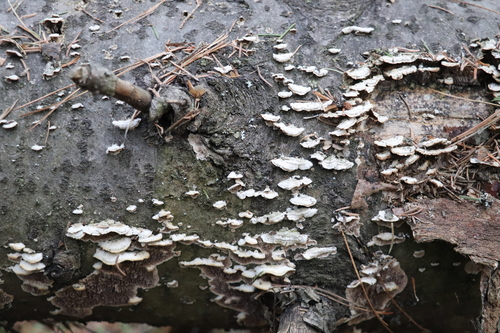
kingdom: Fungi
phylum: Basidiomycota
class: Agaricomycetes
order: Hymenochaetales
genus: Trichaptum
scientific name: Trichaptum fuscoviolaceum
